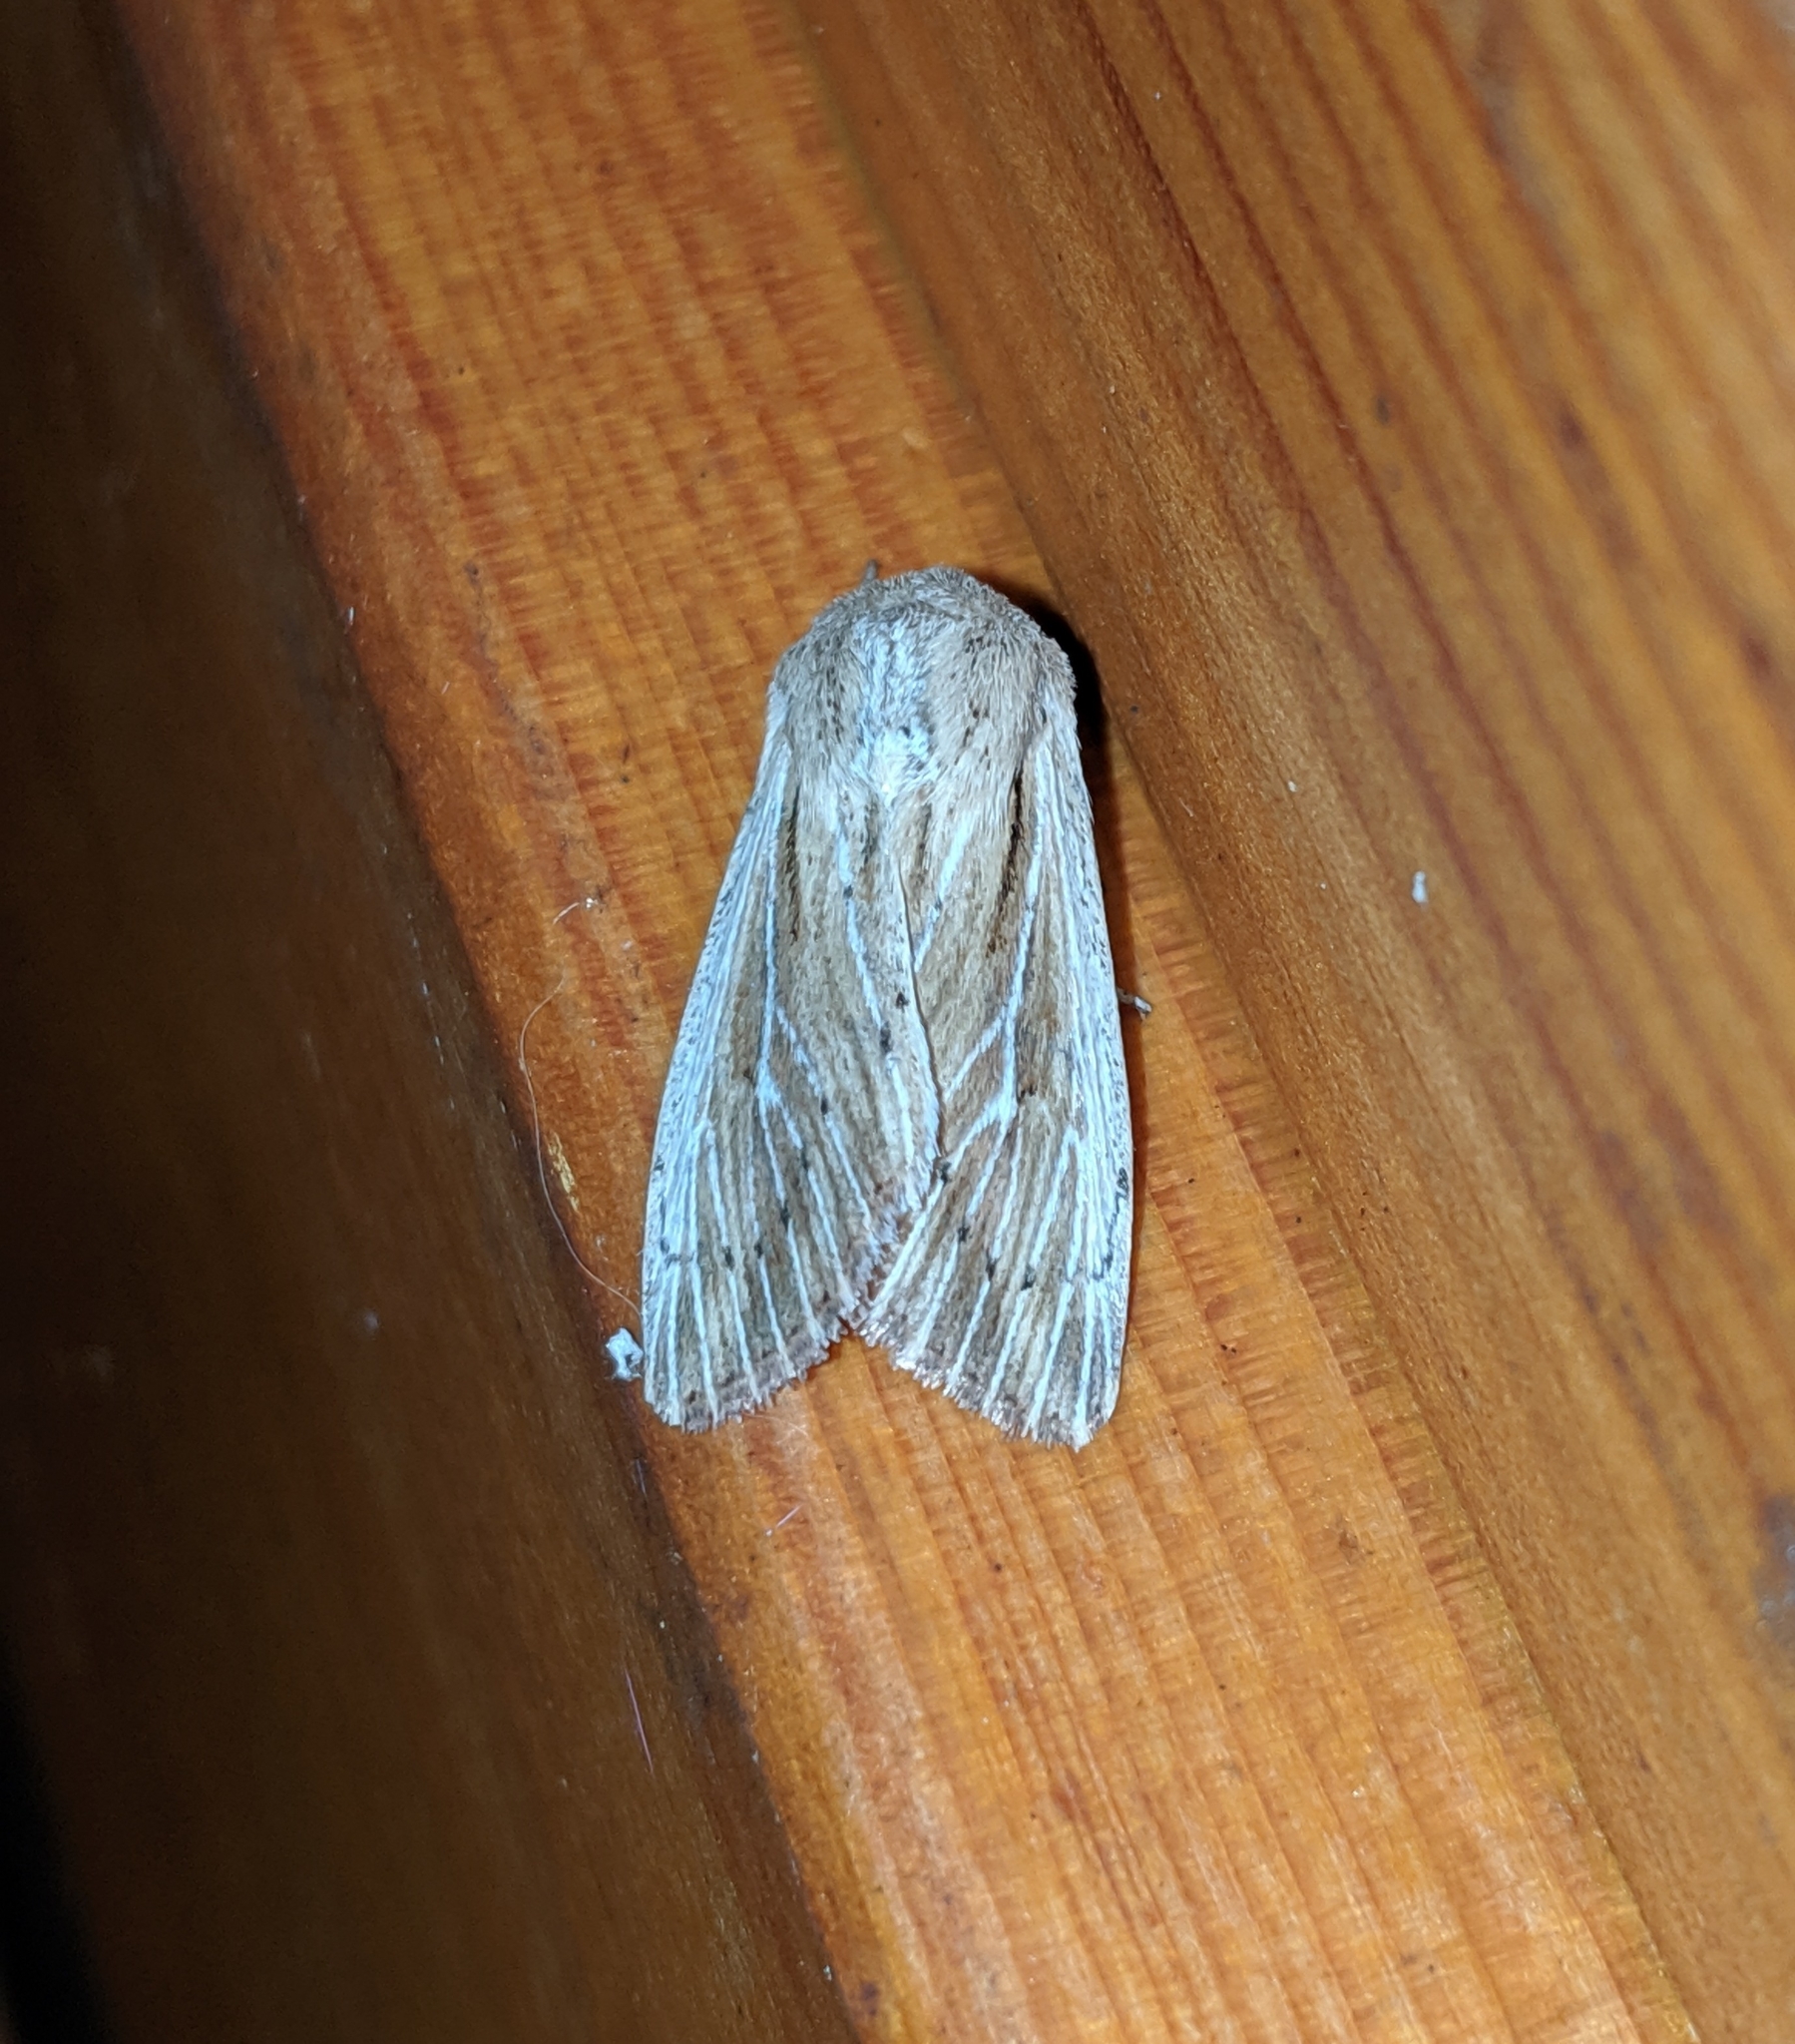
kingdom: Animalia
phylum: Arthropoda
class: Insecta
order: Lepidoptera
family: Noctuidae
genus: Leucania
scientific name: Leucania insueta
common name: Heterodox wainscot moth
